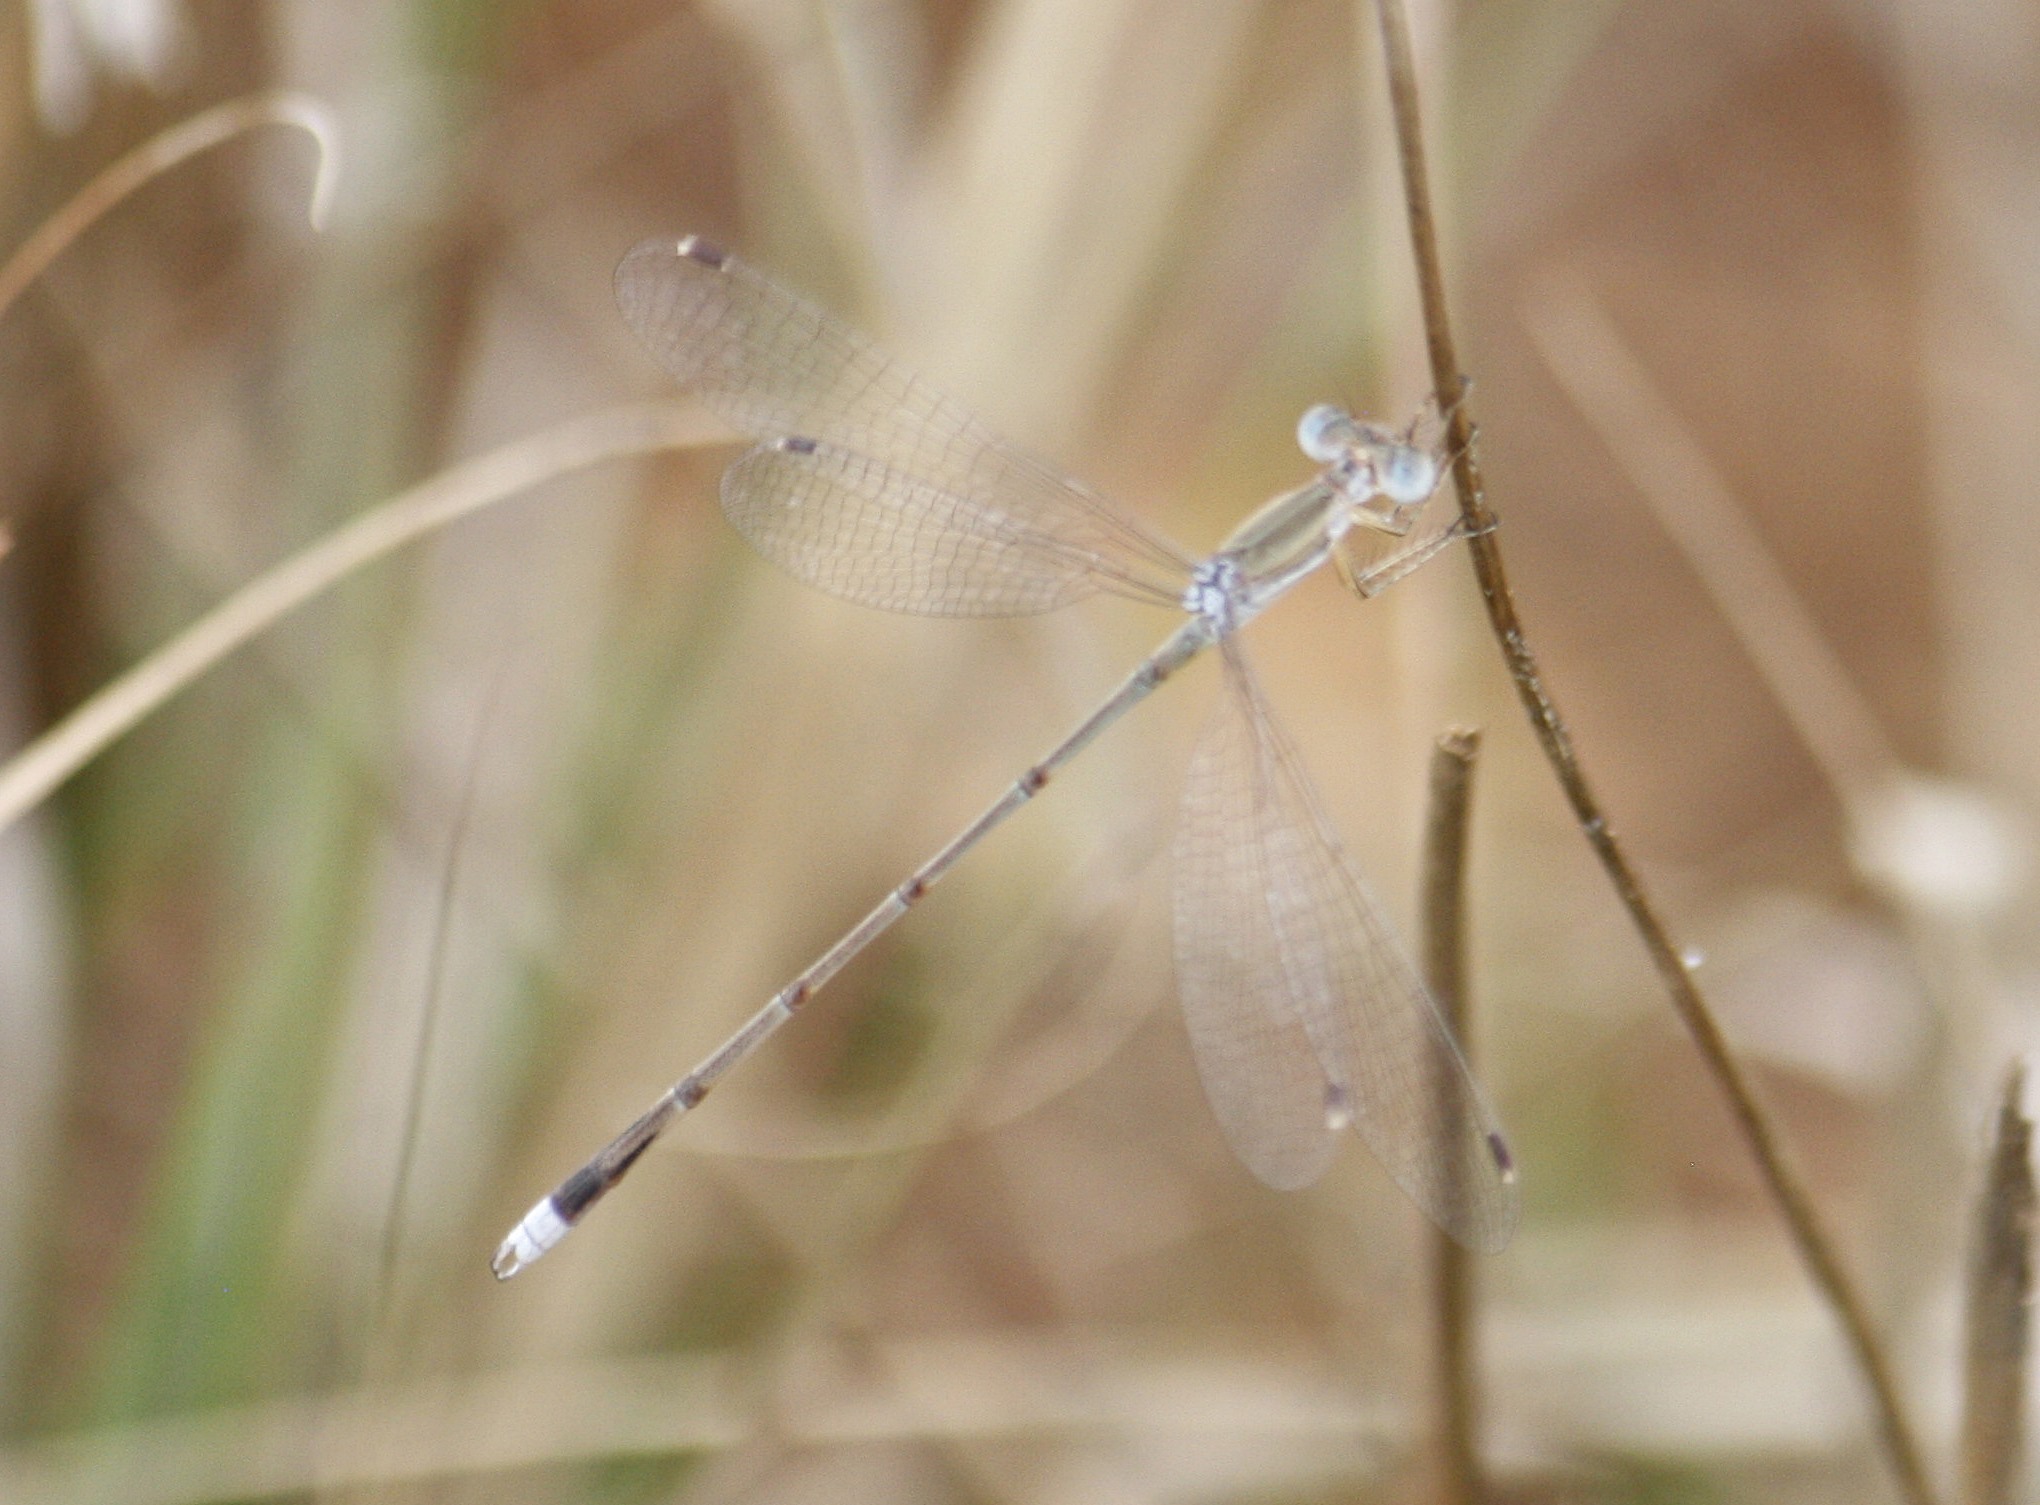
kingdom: Animalia
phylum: Arthropoda
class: Insecta
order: Odonata
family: Lestidae
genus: Lestes
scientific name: Lestes pallidus
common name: Pallid spreadwing
